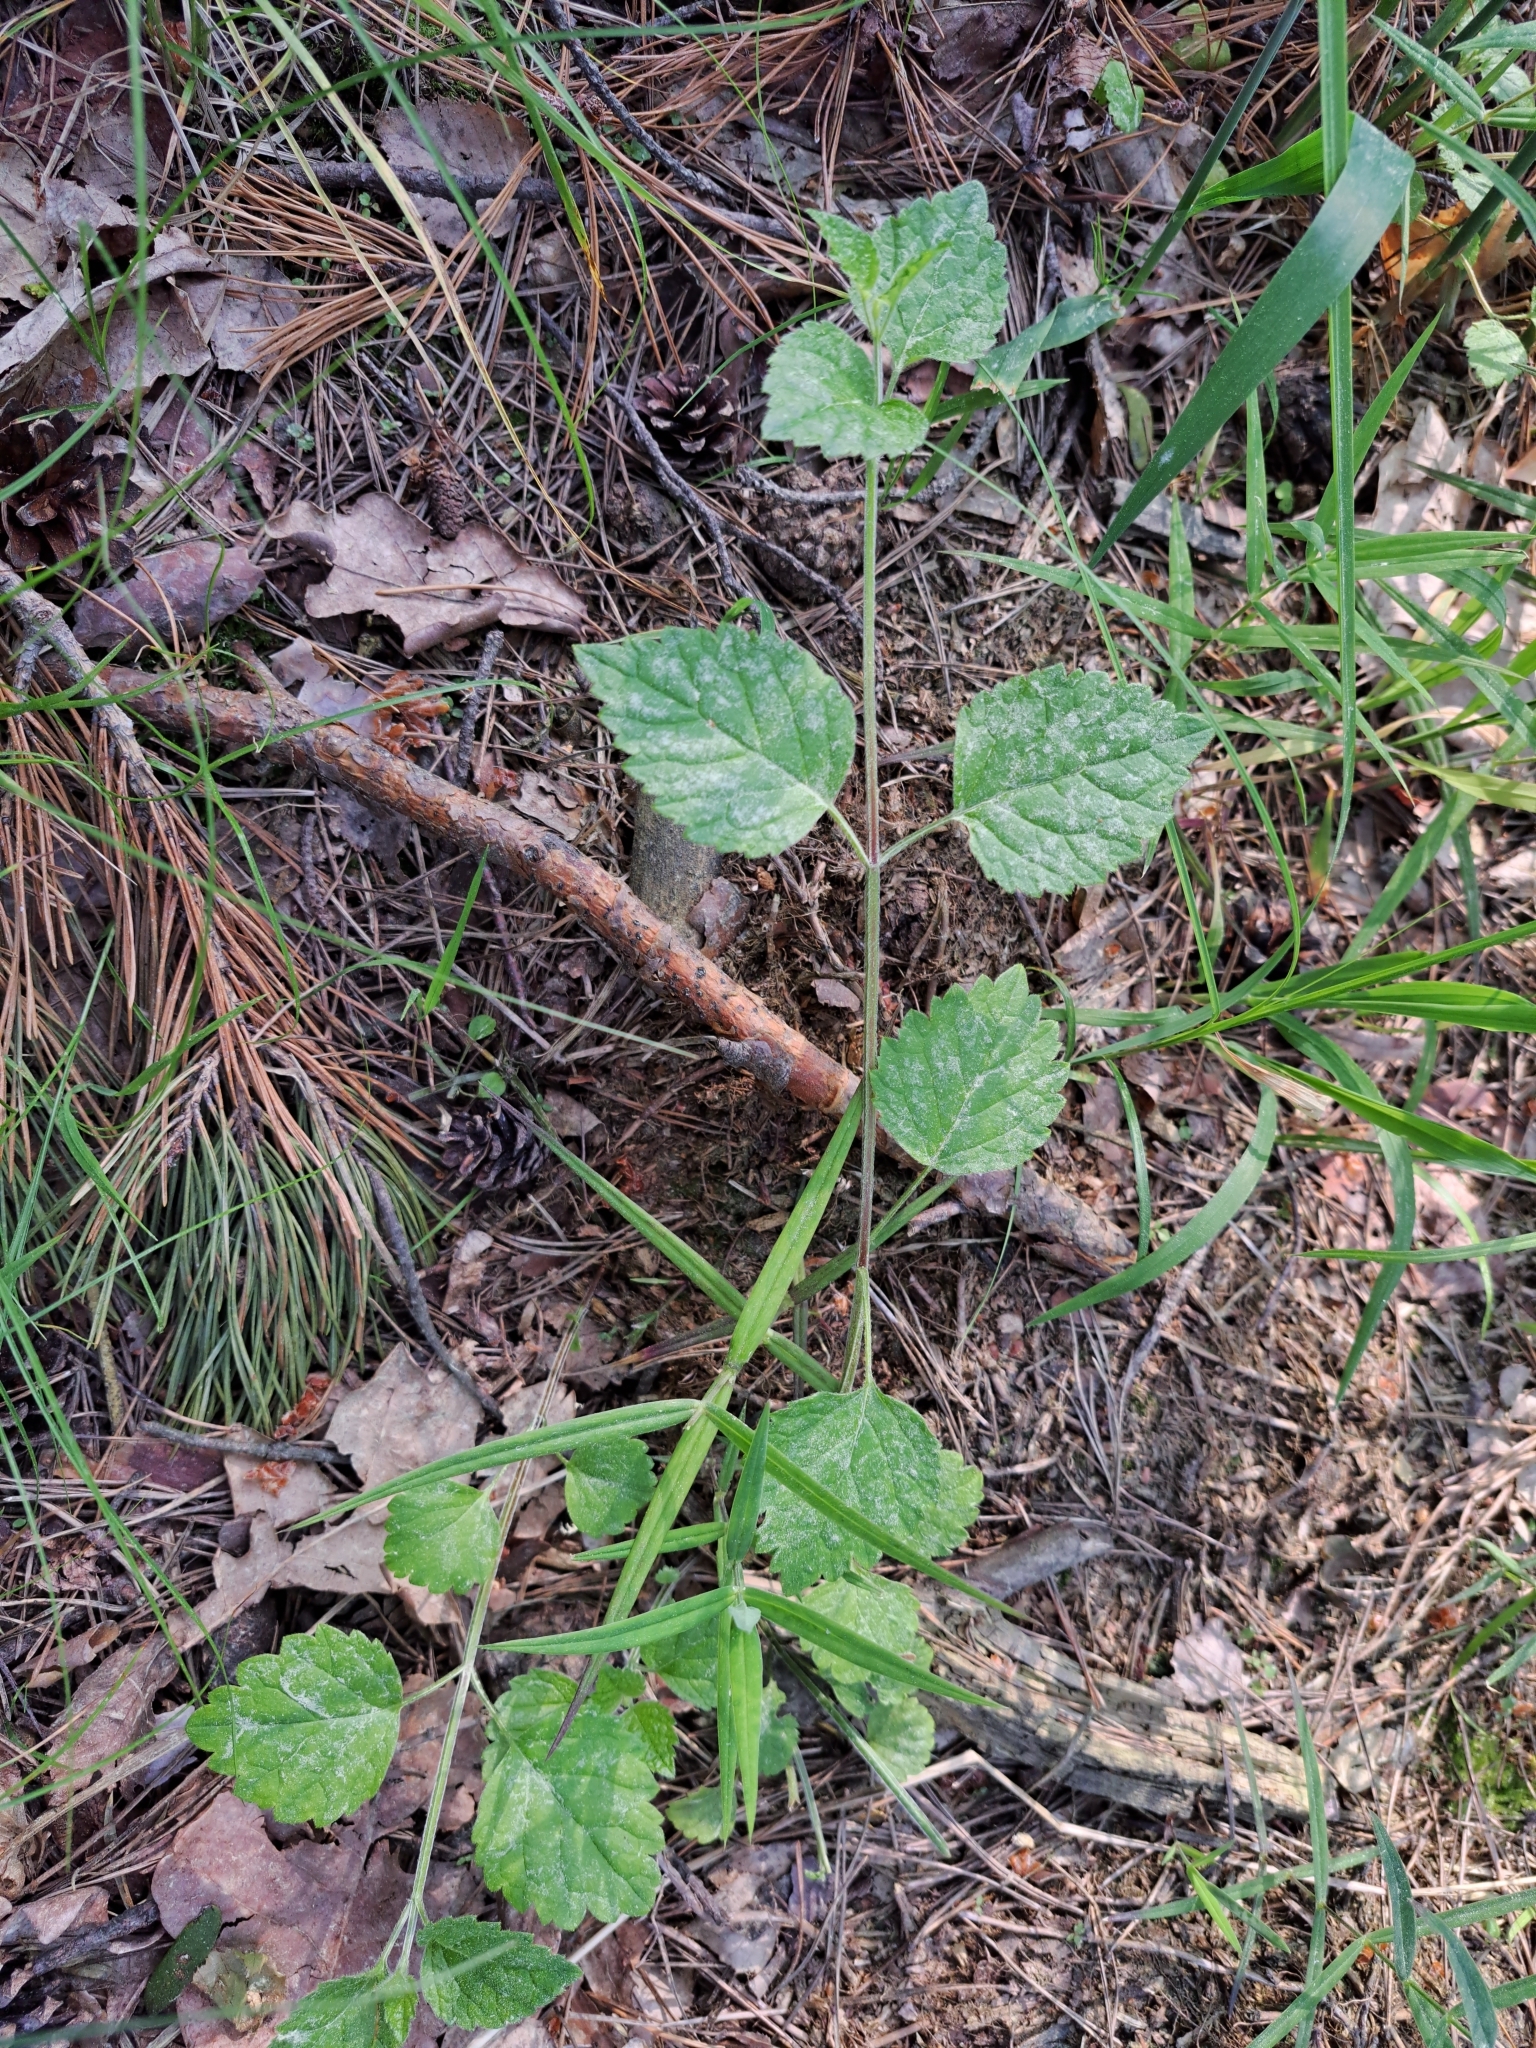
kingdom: Plantae
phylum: Tracheophyta
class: Magnoliopsida
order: Lamiales
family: Lamiaceae
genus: Lamium
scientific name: Lamium galeobdolon
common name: Yellow archangel
